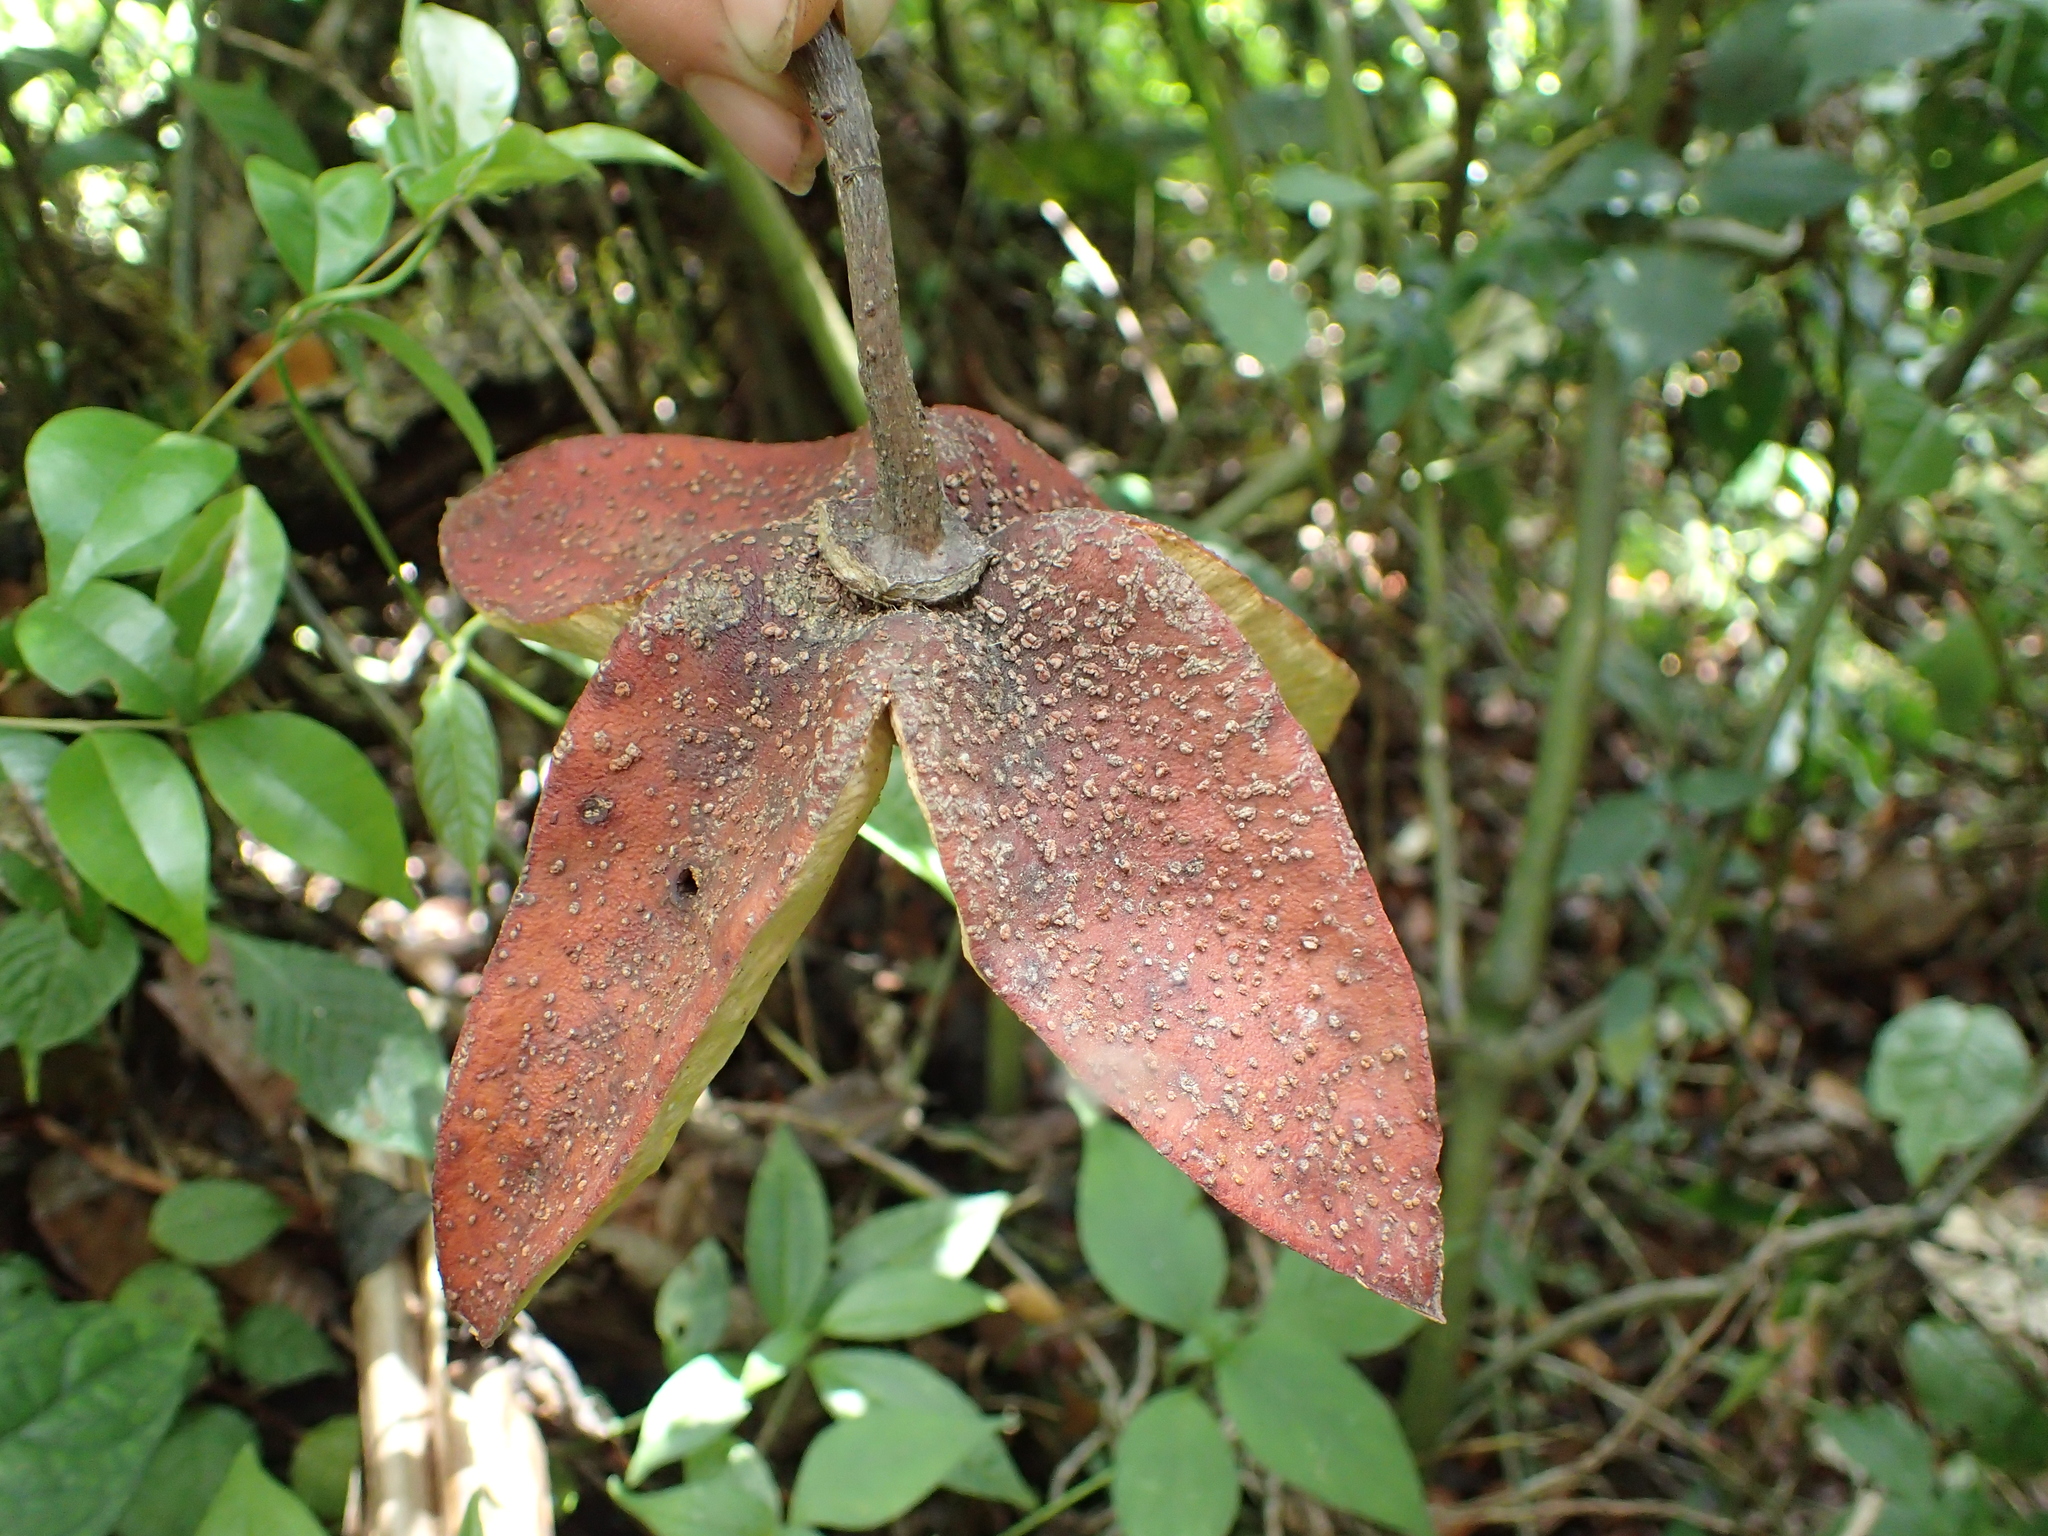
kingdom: Plantae
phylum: Tracheophyta
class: Magnoliopsida
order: Oxalidales
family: Elaeocarpaceae
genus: Sloanea
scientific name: Sloanea rhodantha
